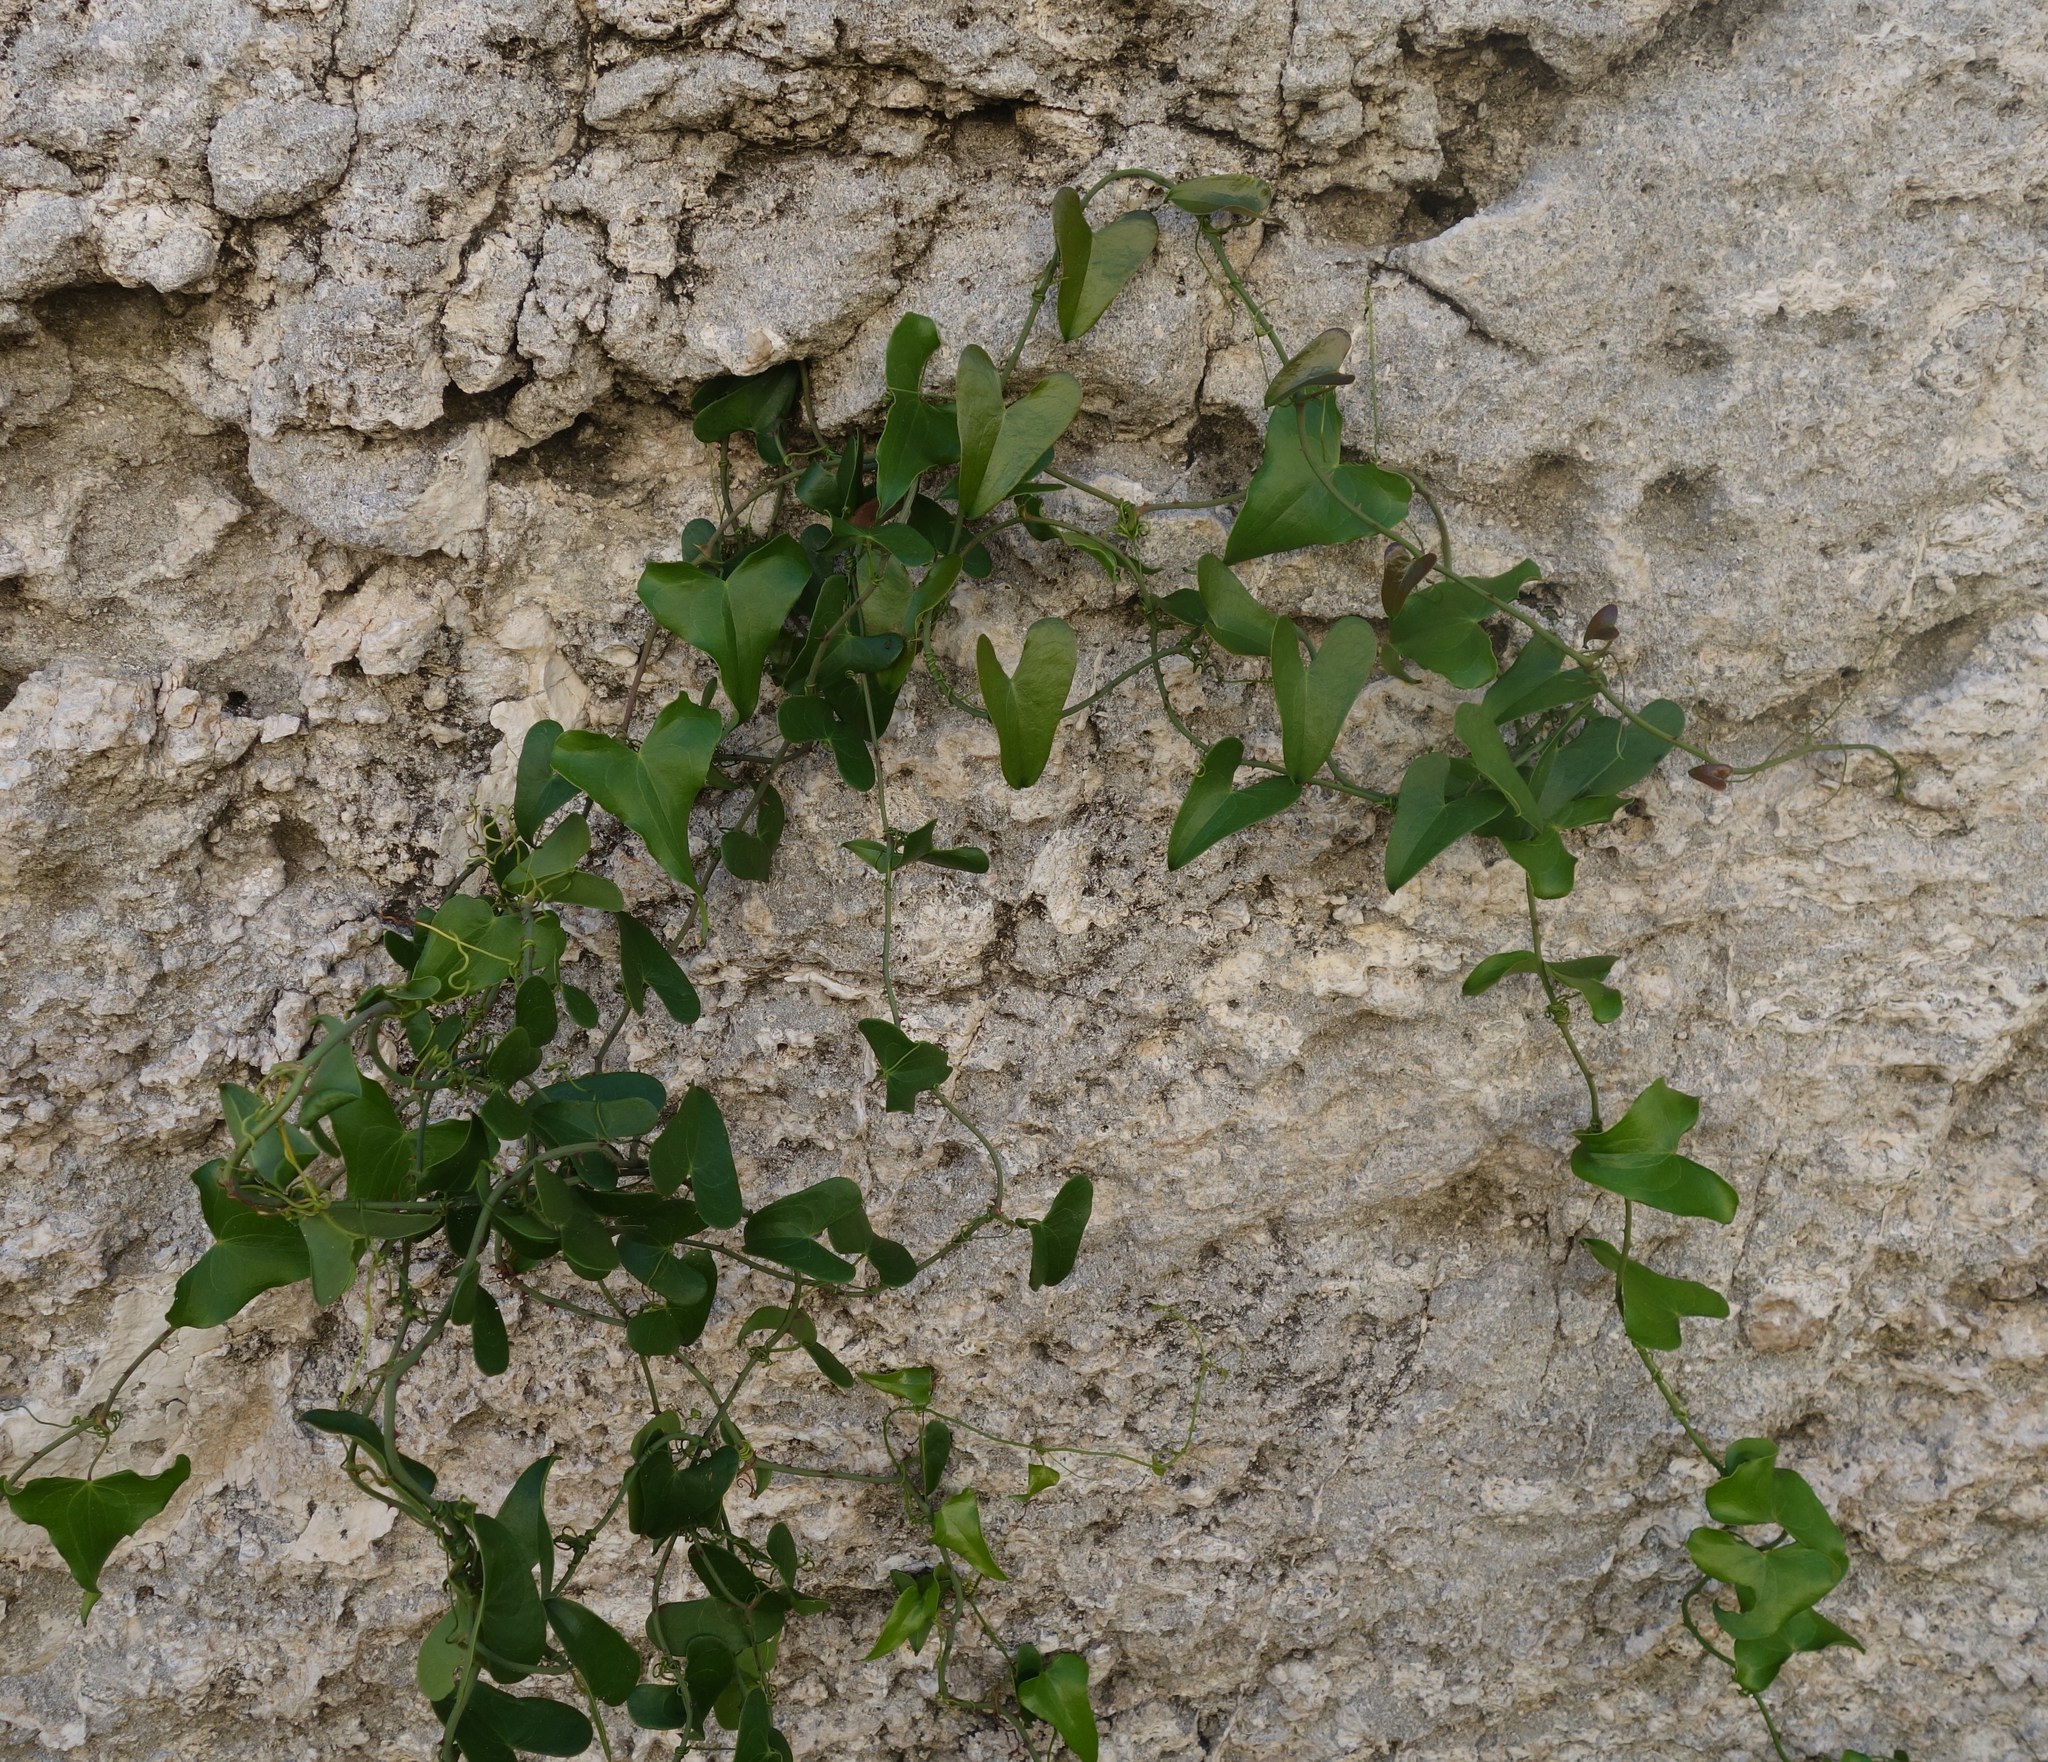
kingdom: Plantae
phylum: Tracheophyta
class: Liliopsida
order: Liliales
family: Smilacaceae
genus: Smilax
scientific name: Smilax aspera
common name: Common smilax
